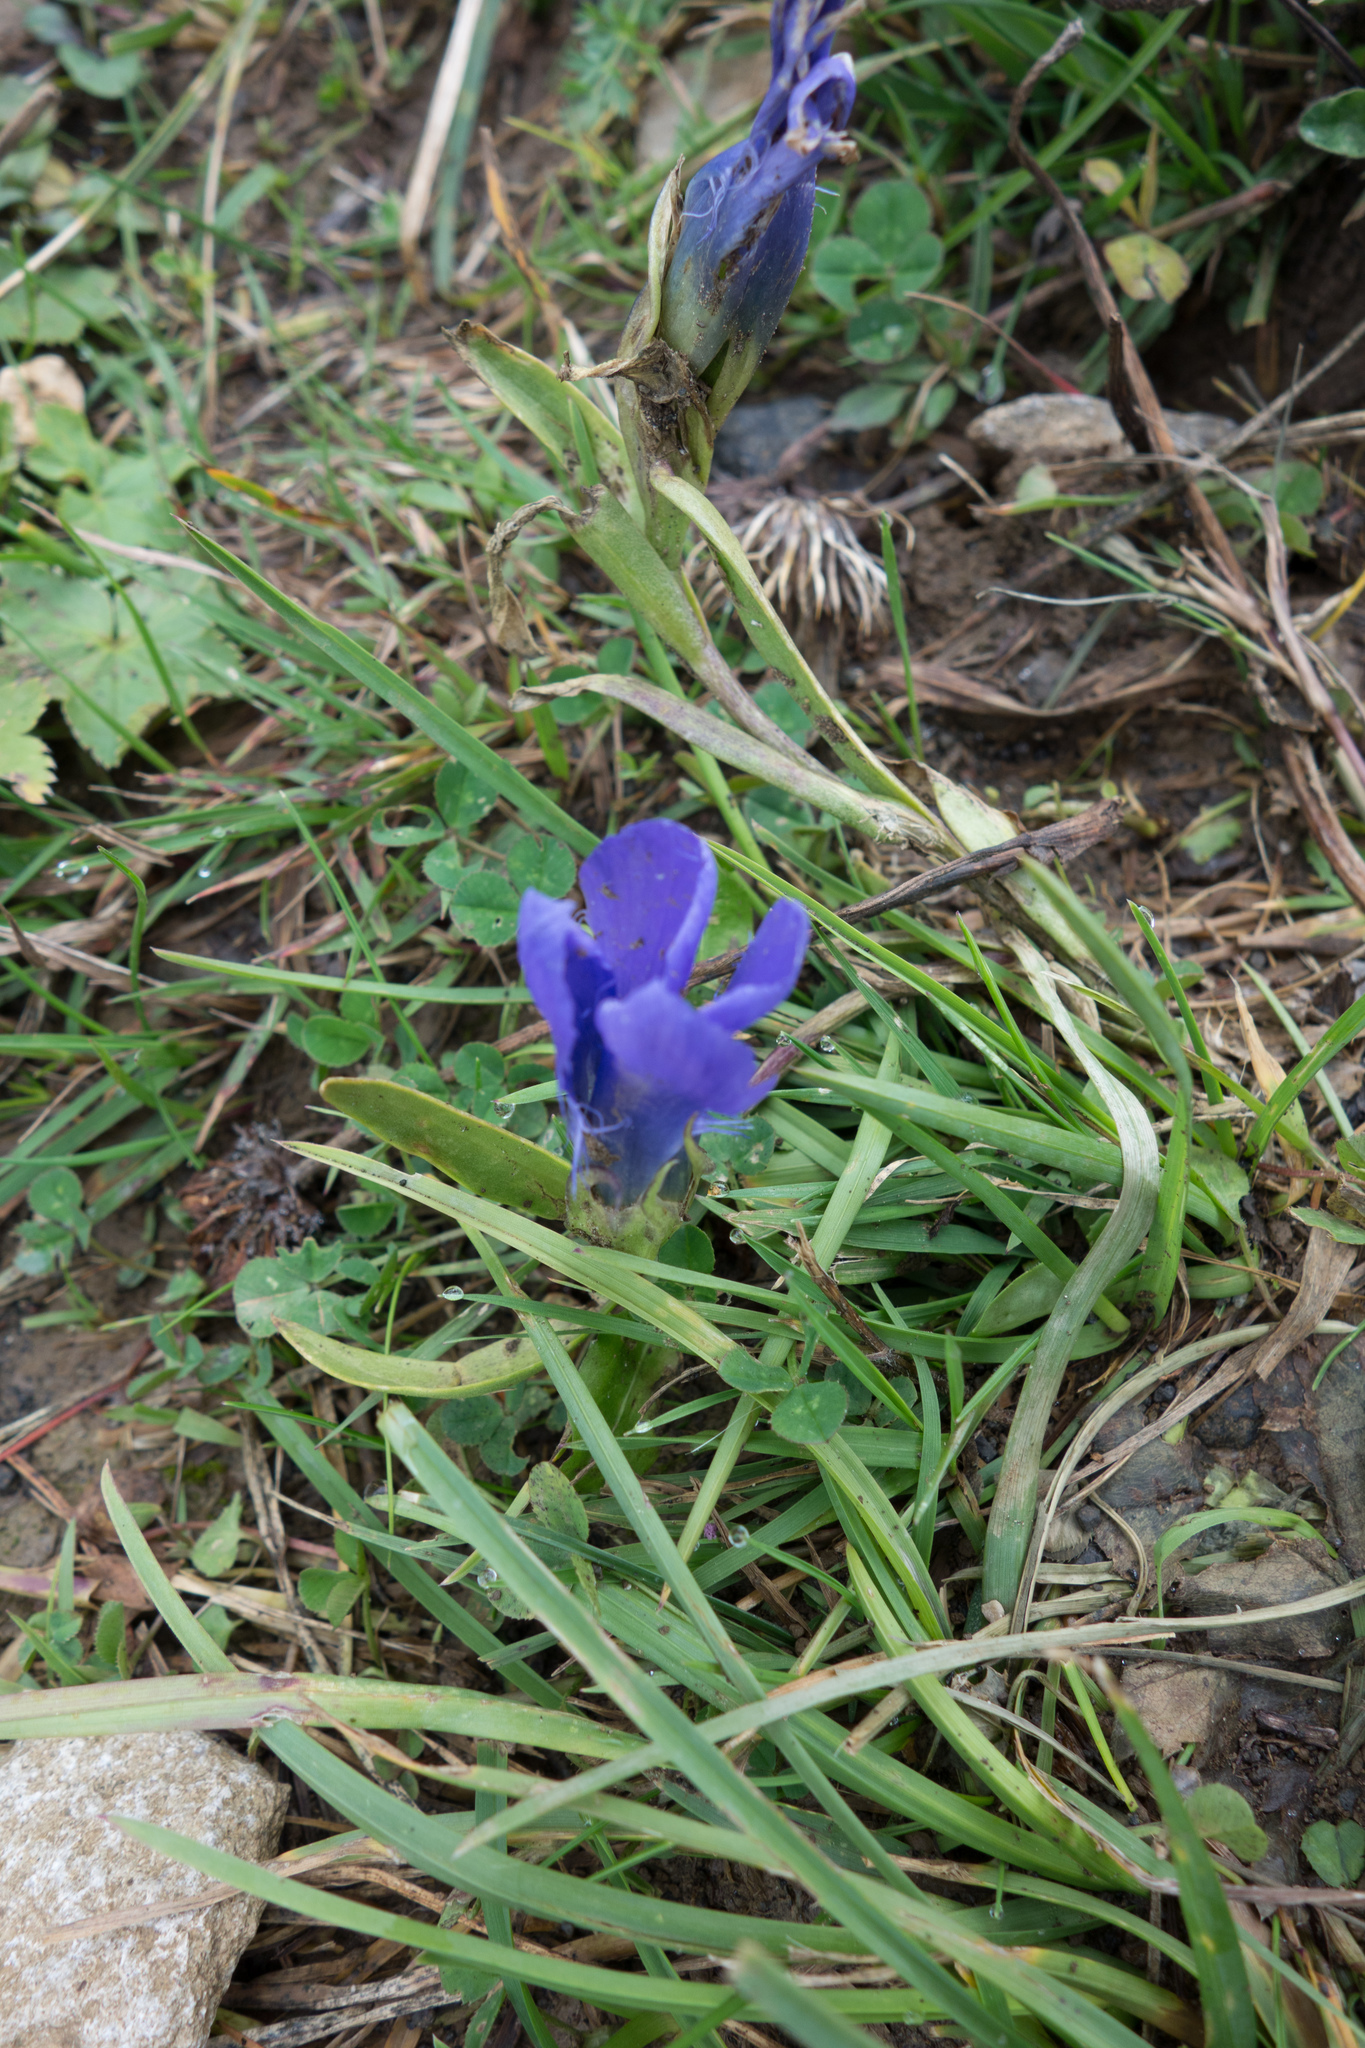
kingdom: Plantae
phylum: Tracheophyta
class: Magnoliopsida
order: Gentianales
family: Gentianaceae
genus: Gentianopsis
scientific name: Gentianopsis ciliata
